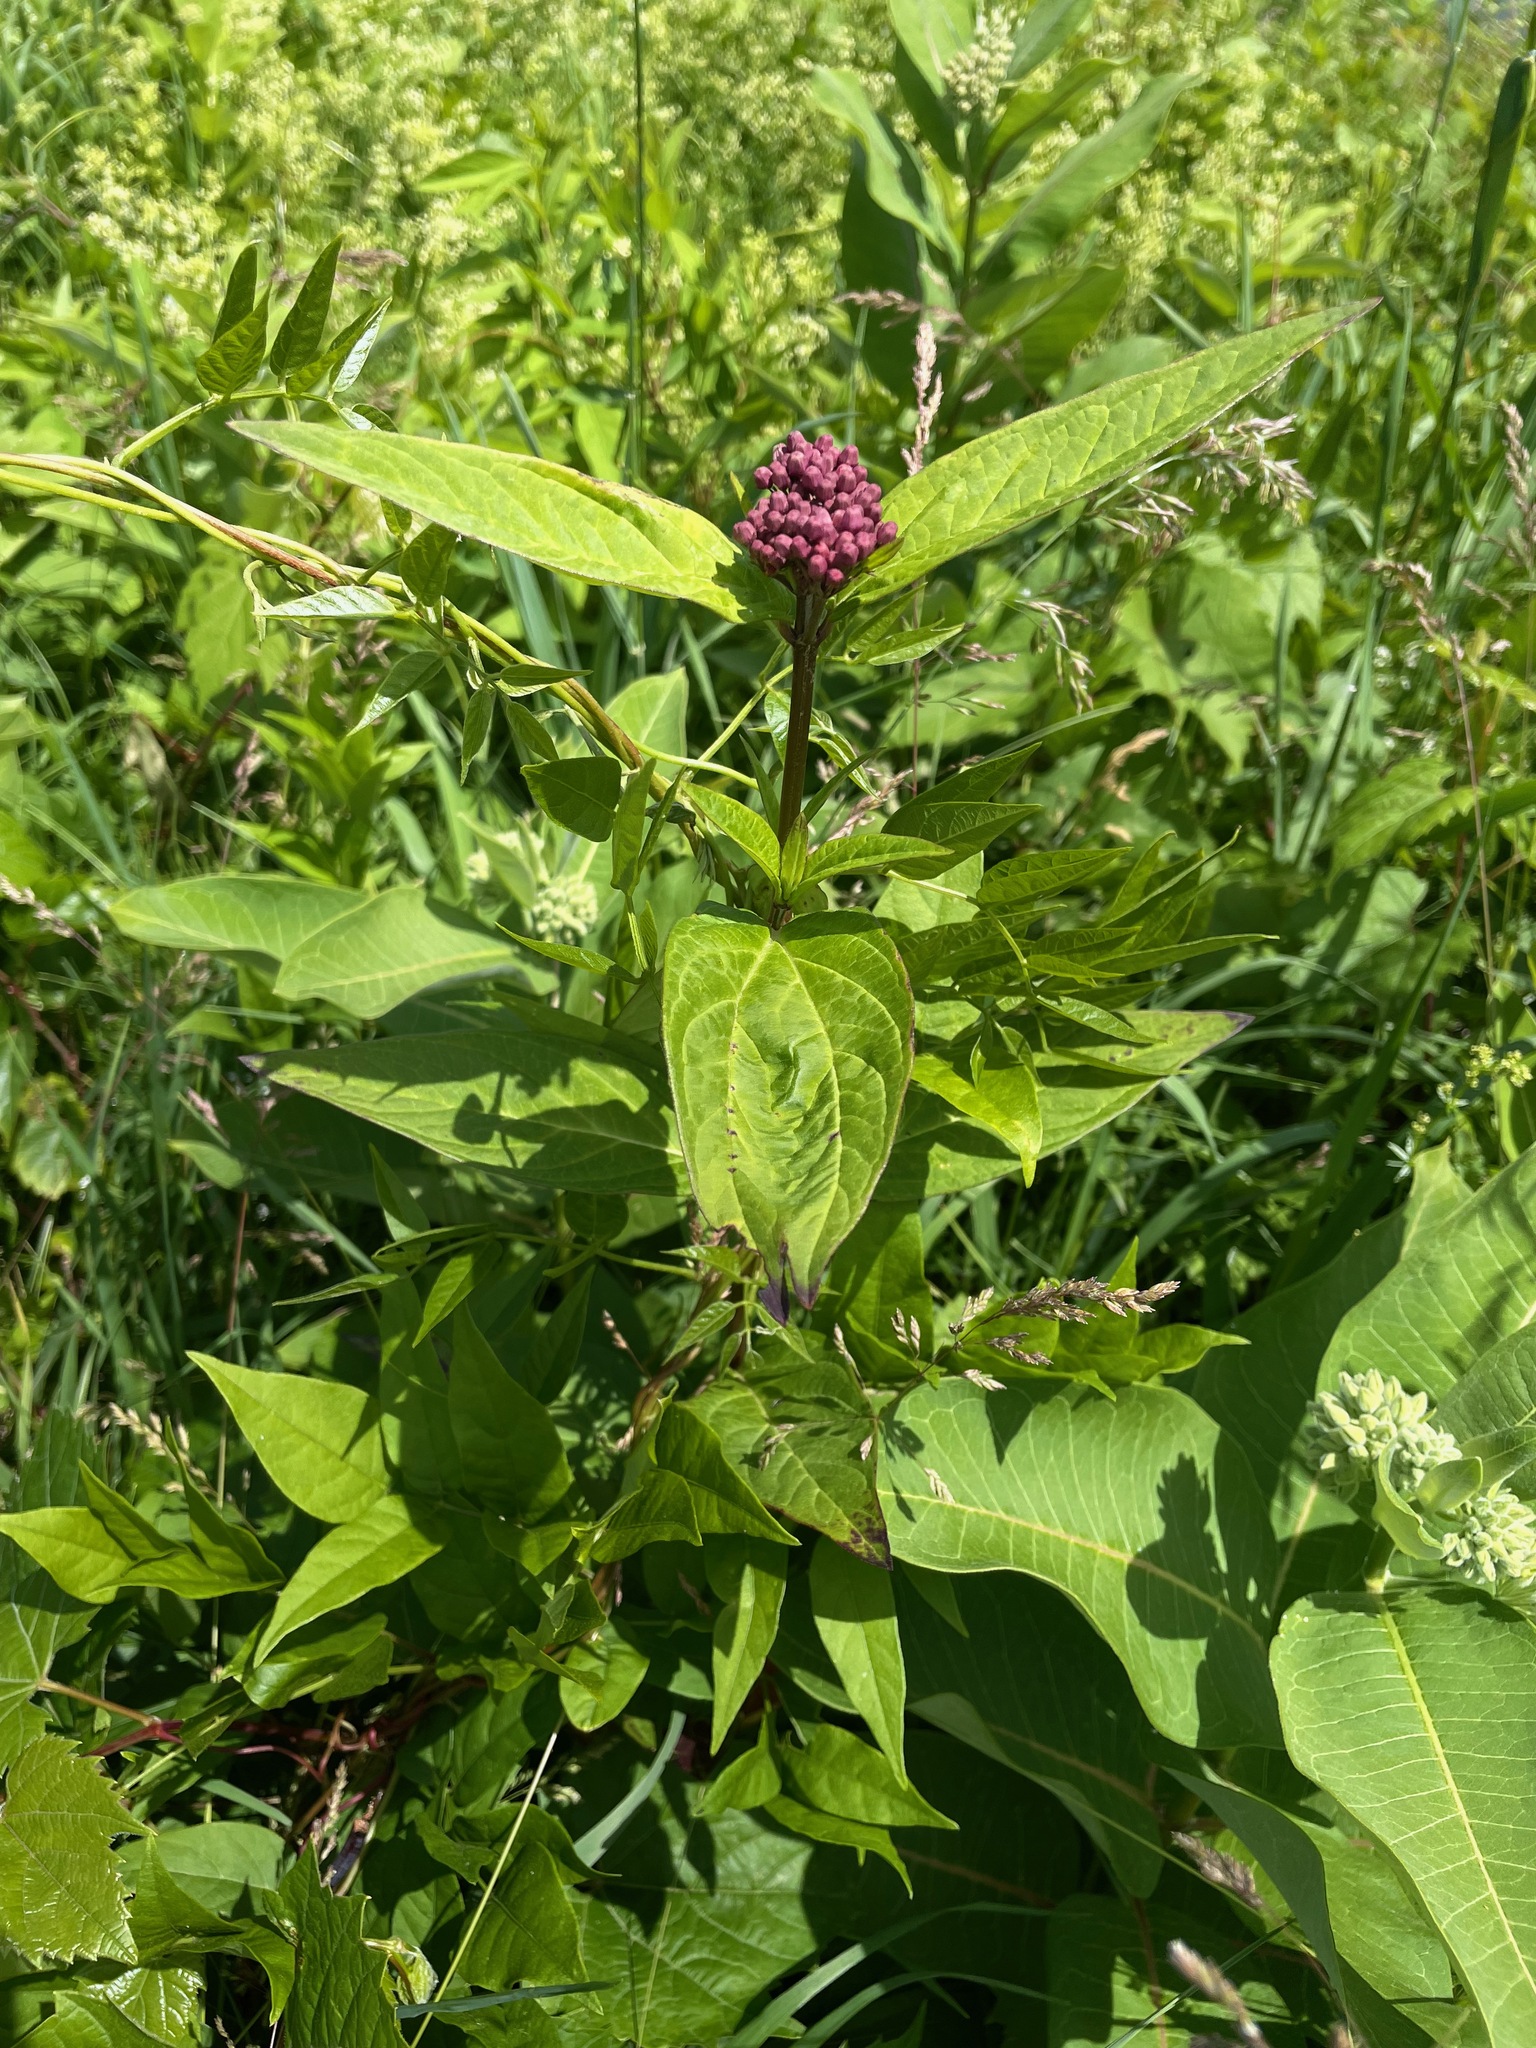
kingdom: Plantae
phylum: Tracheophyta
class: Magnoliopsida
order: Gentianales
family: Apocynaceae
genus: Asclepias
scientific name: Asclepias incarnata
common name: Swamp milkweed
